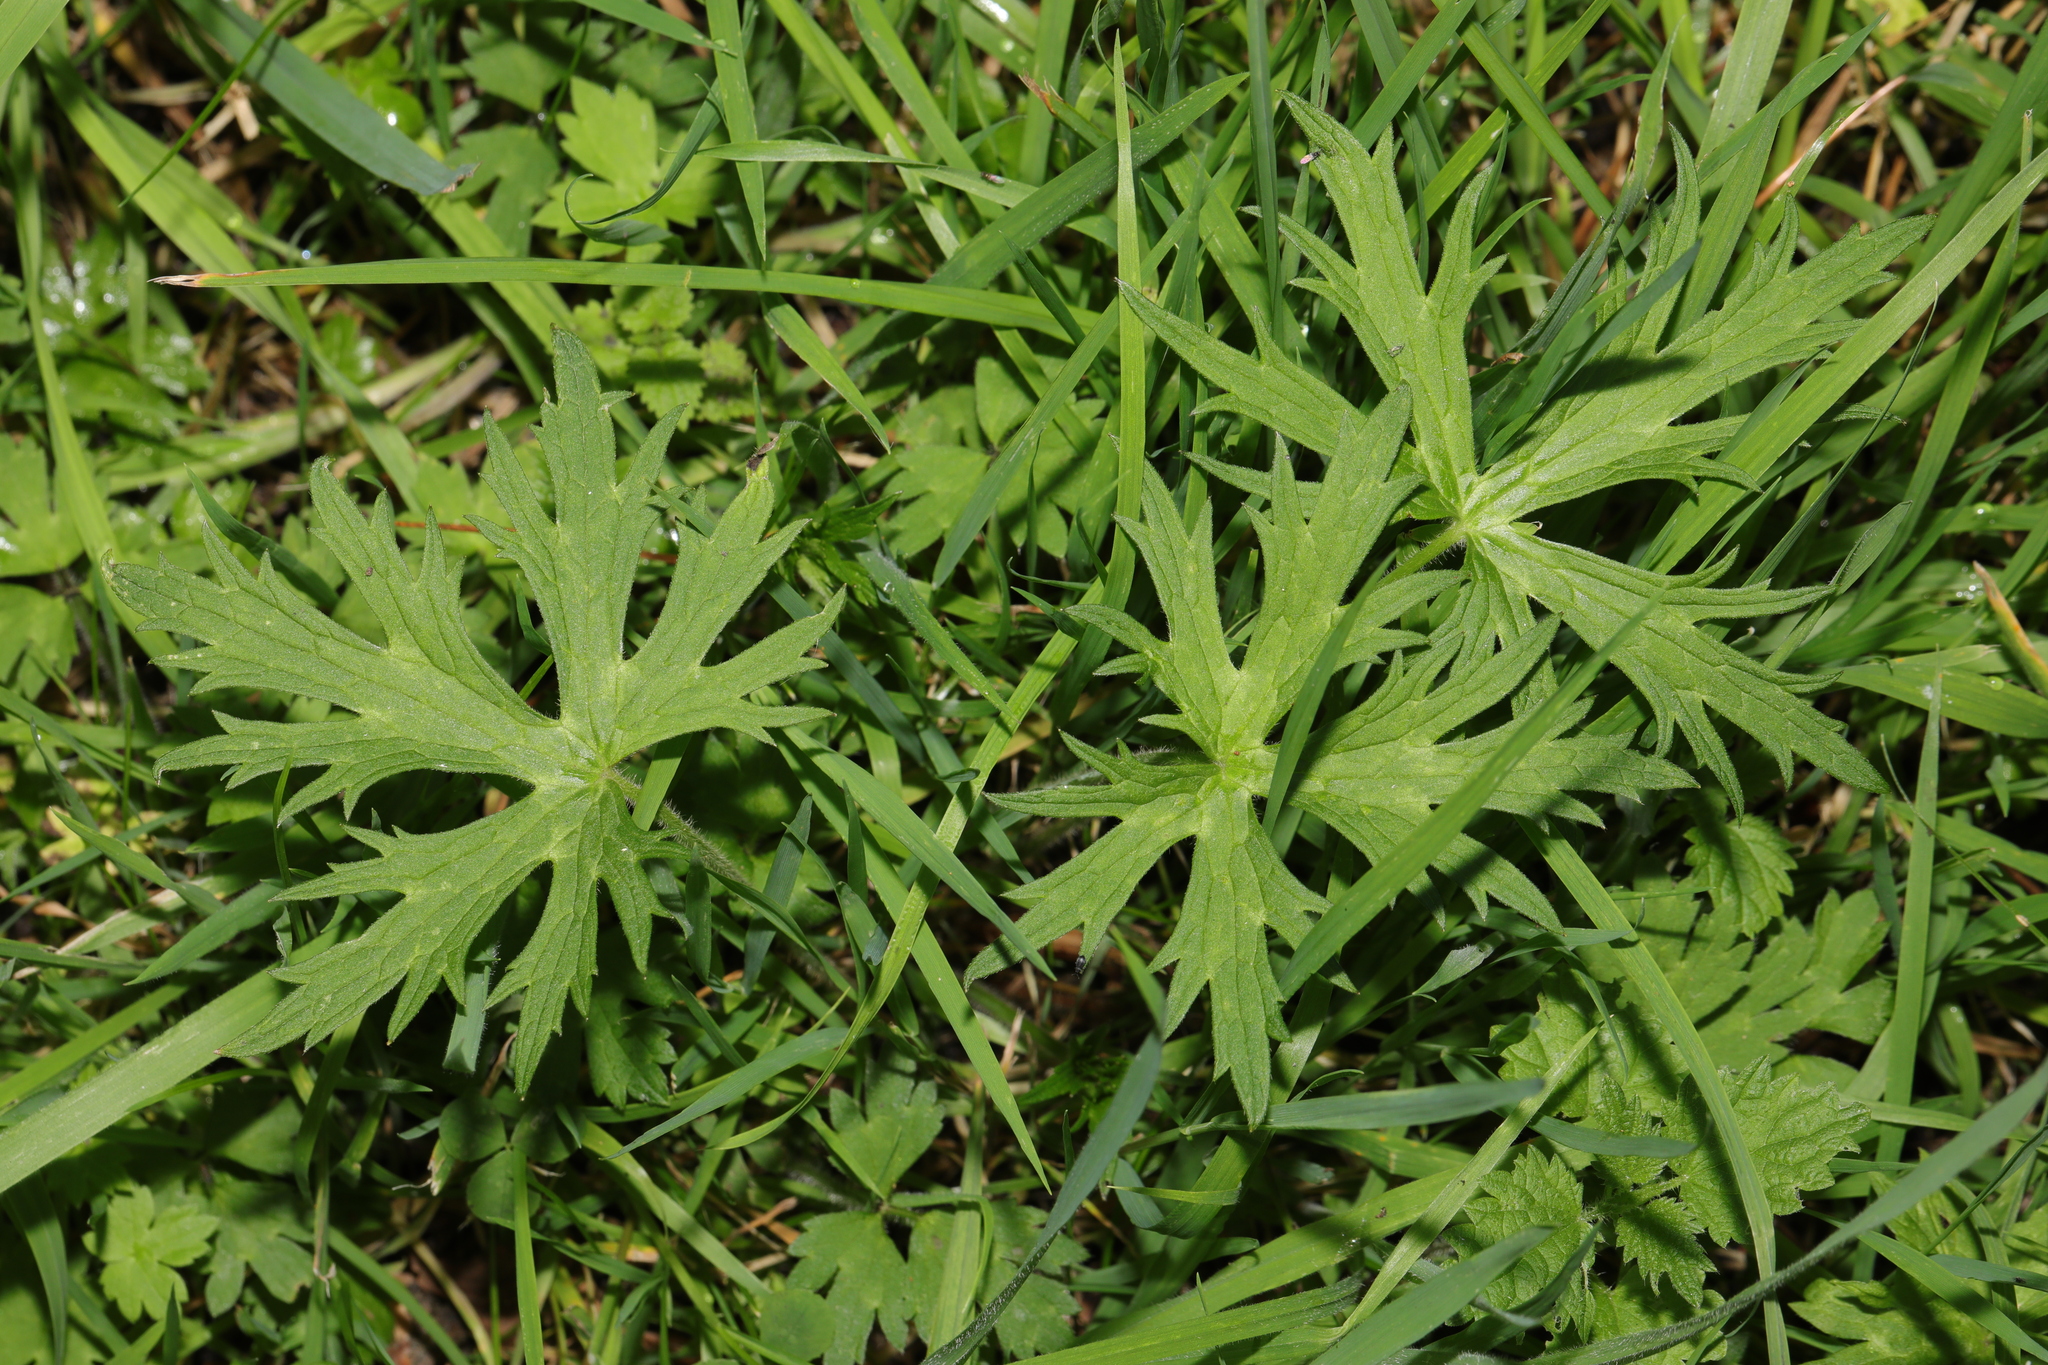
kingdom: Plantae
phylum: Tracheophyta
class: Magnoliopsida
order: Ranunculales
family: Ranunculaceae
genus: Ranunculus
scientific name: Ranunculus acris
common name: Meadow buttercup
